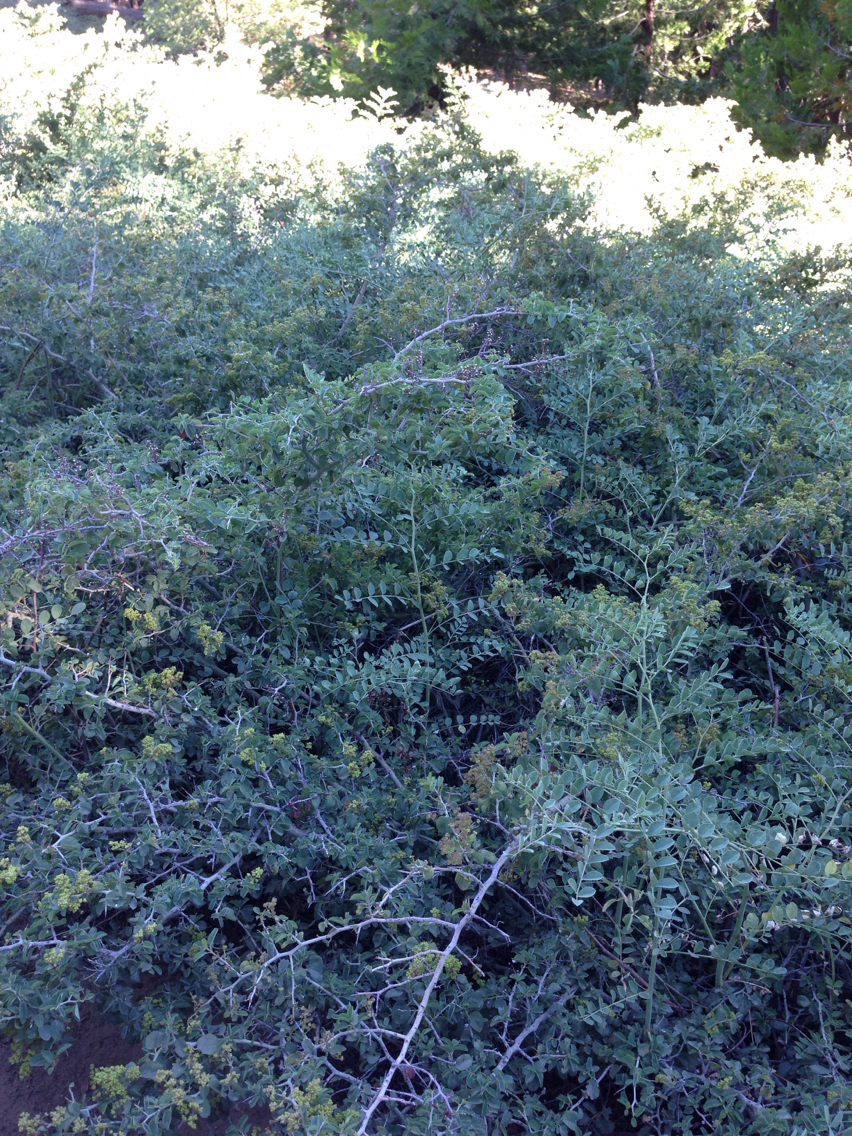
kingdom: Plantae
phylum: Tracheophyta
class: Magnoliopsida
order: Rosales
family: Rhamnaceae
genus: Ceanothus
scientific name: Ceanothus cordulatus
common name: Mountain whitethorn
